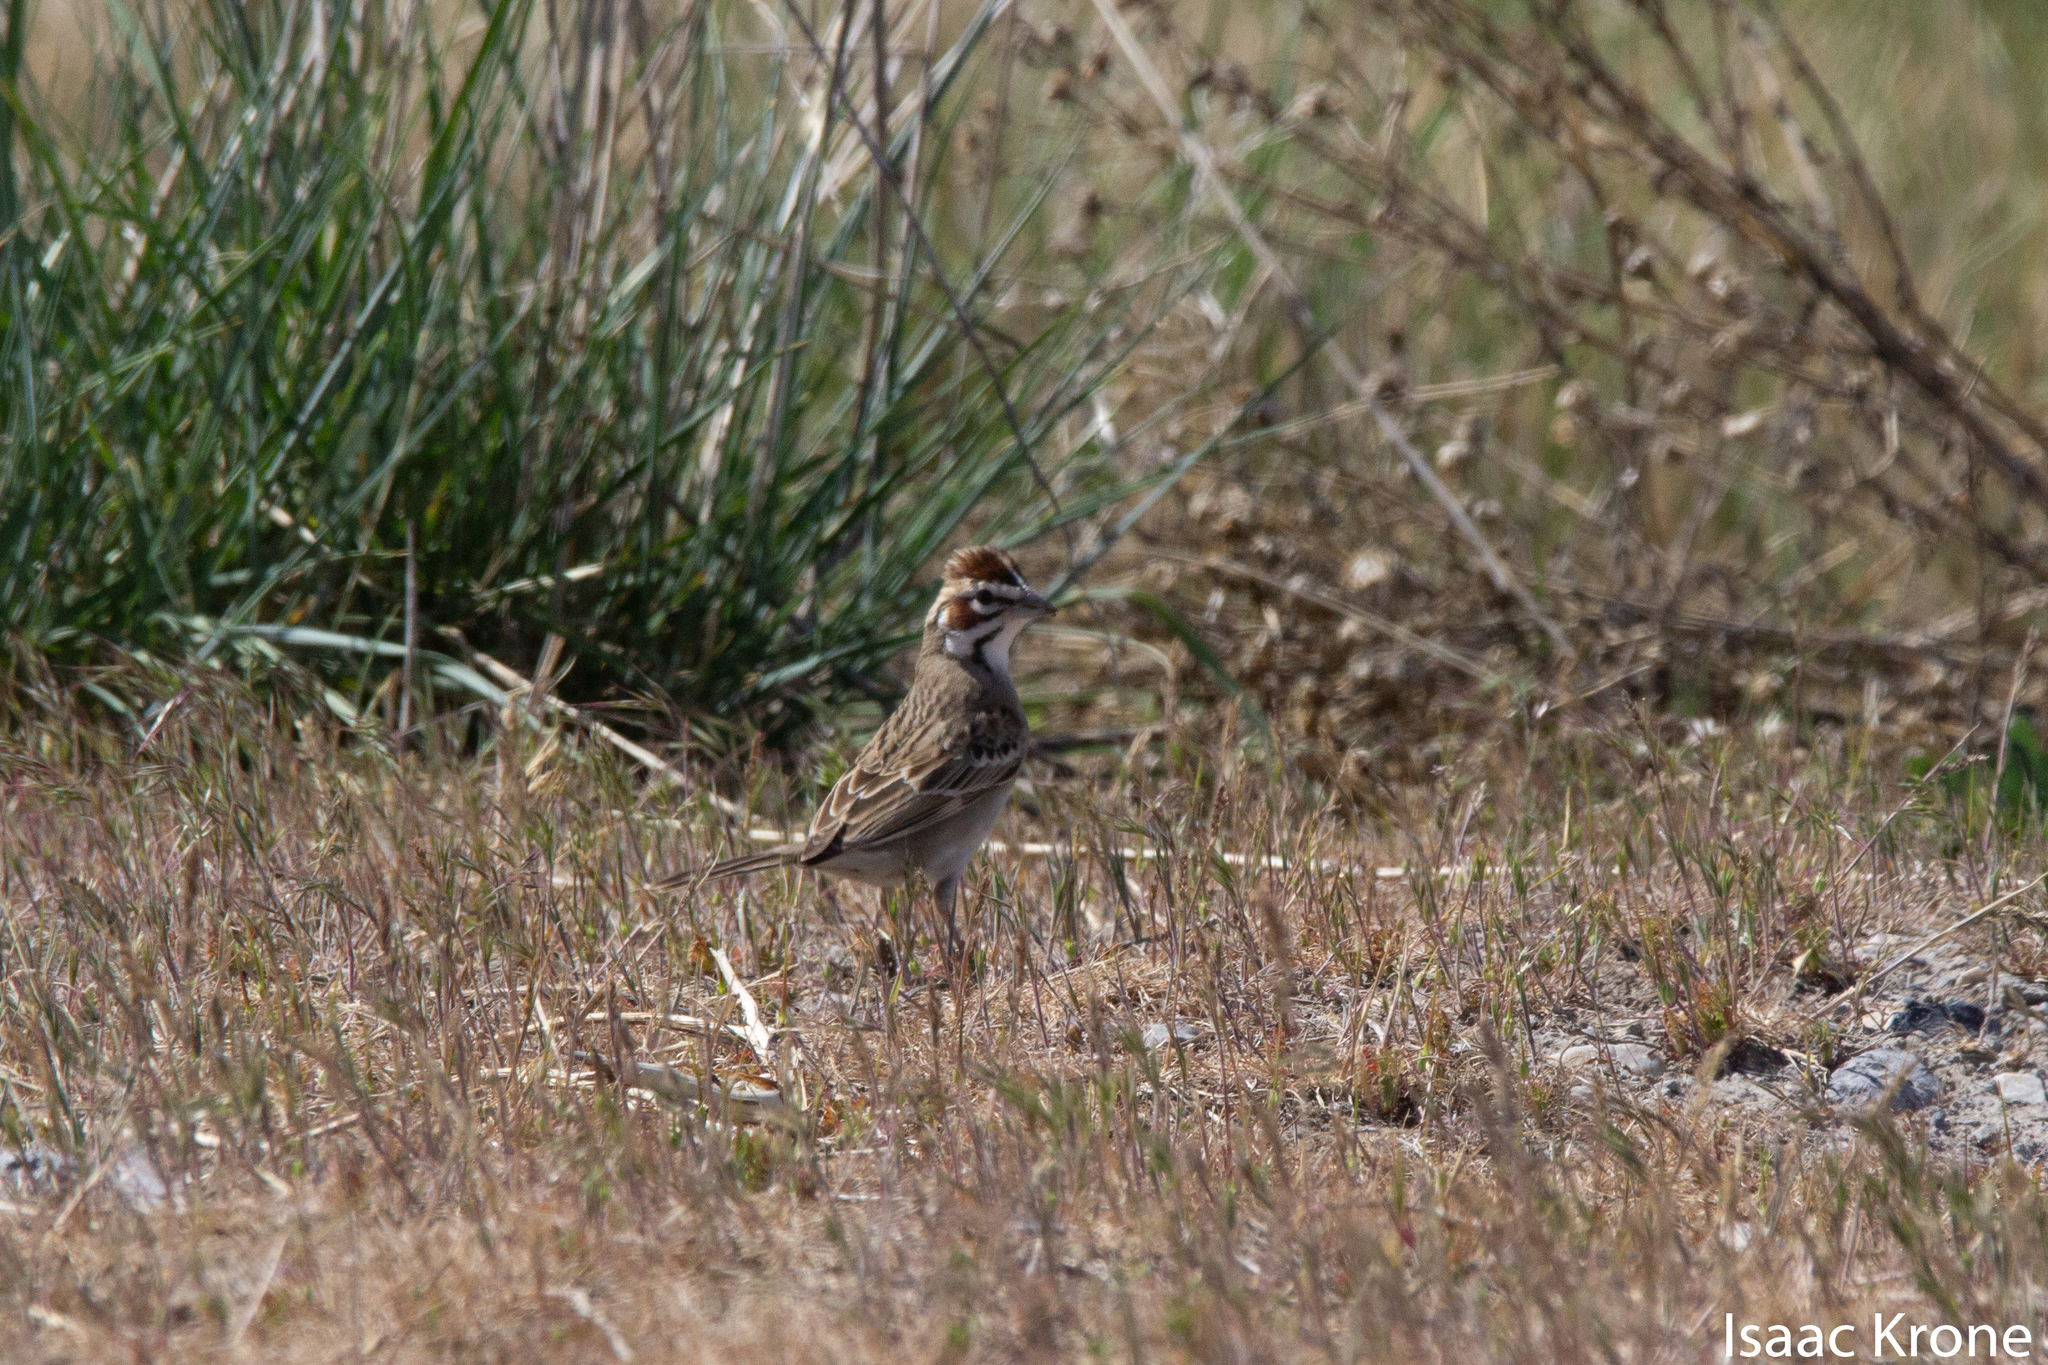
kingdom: Animalia
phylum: Chordata
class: Aves
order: Passeriformes
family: Passerellidae
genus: Chondestes
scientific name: Chondestes grammacus
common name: Lark sparrow
